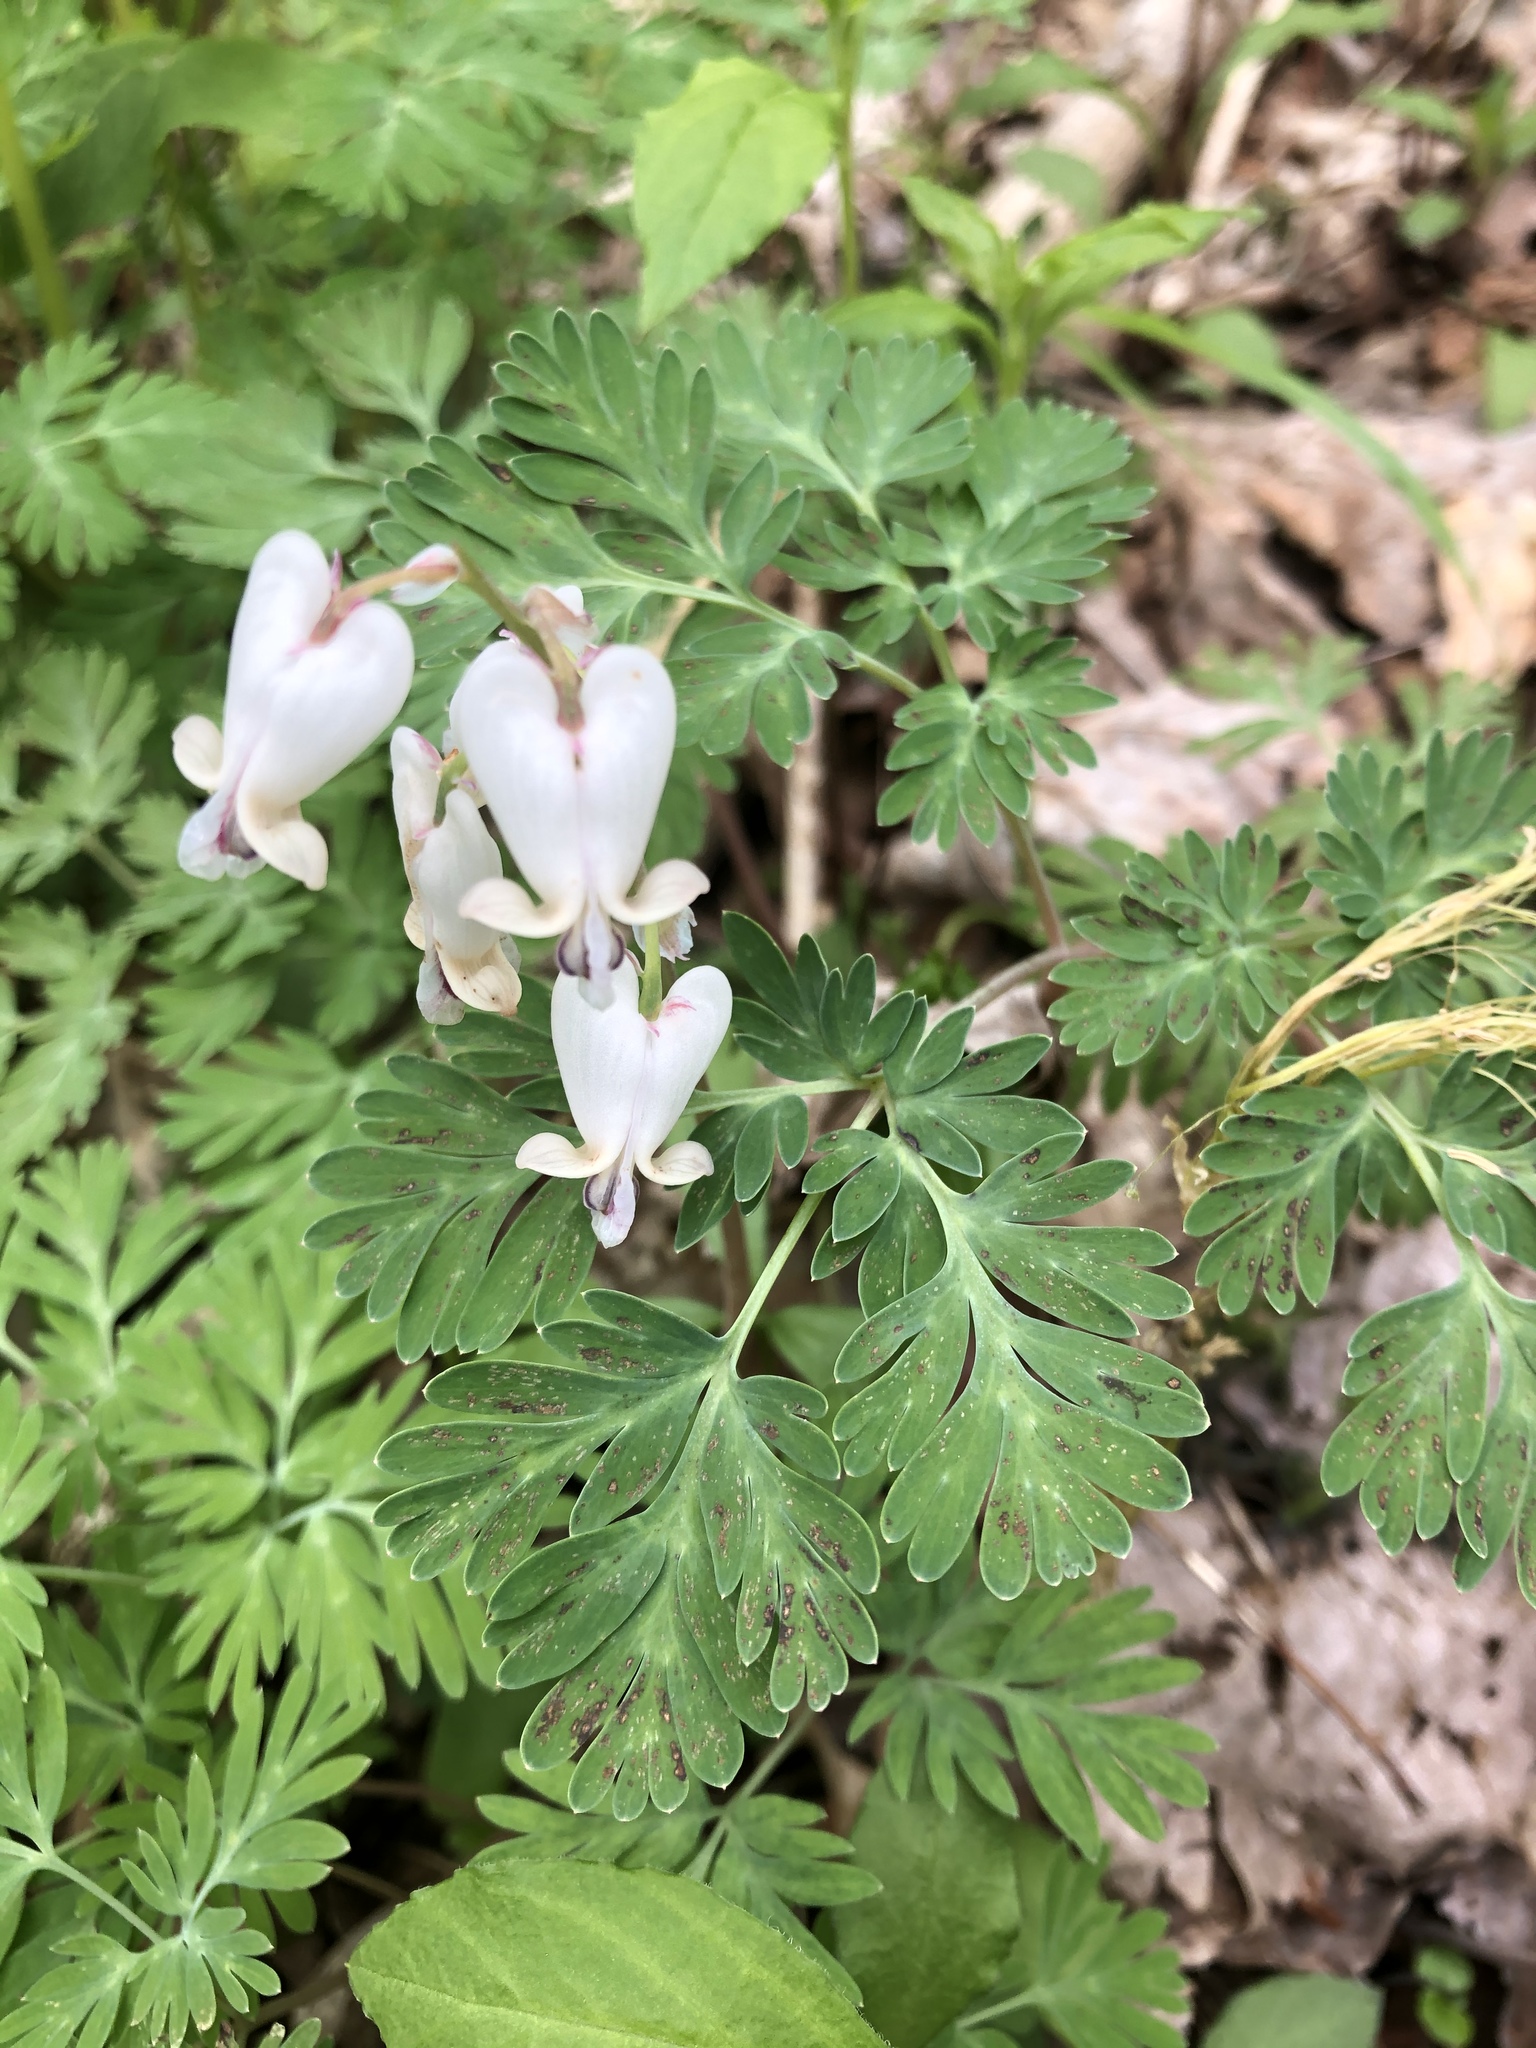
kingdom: Plantae
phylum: Tracheophyta
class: Magnoliopsida
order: Ranunculales
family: Papaveraceae
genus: Dicentra
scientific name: Dicentra canadensis
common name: Squirrel-corn
